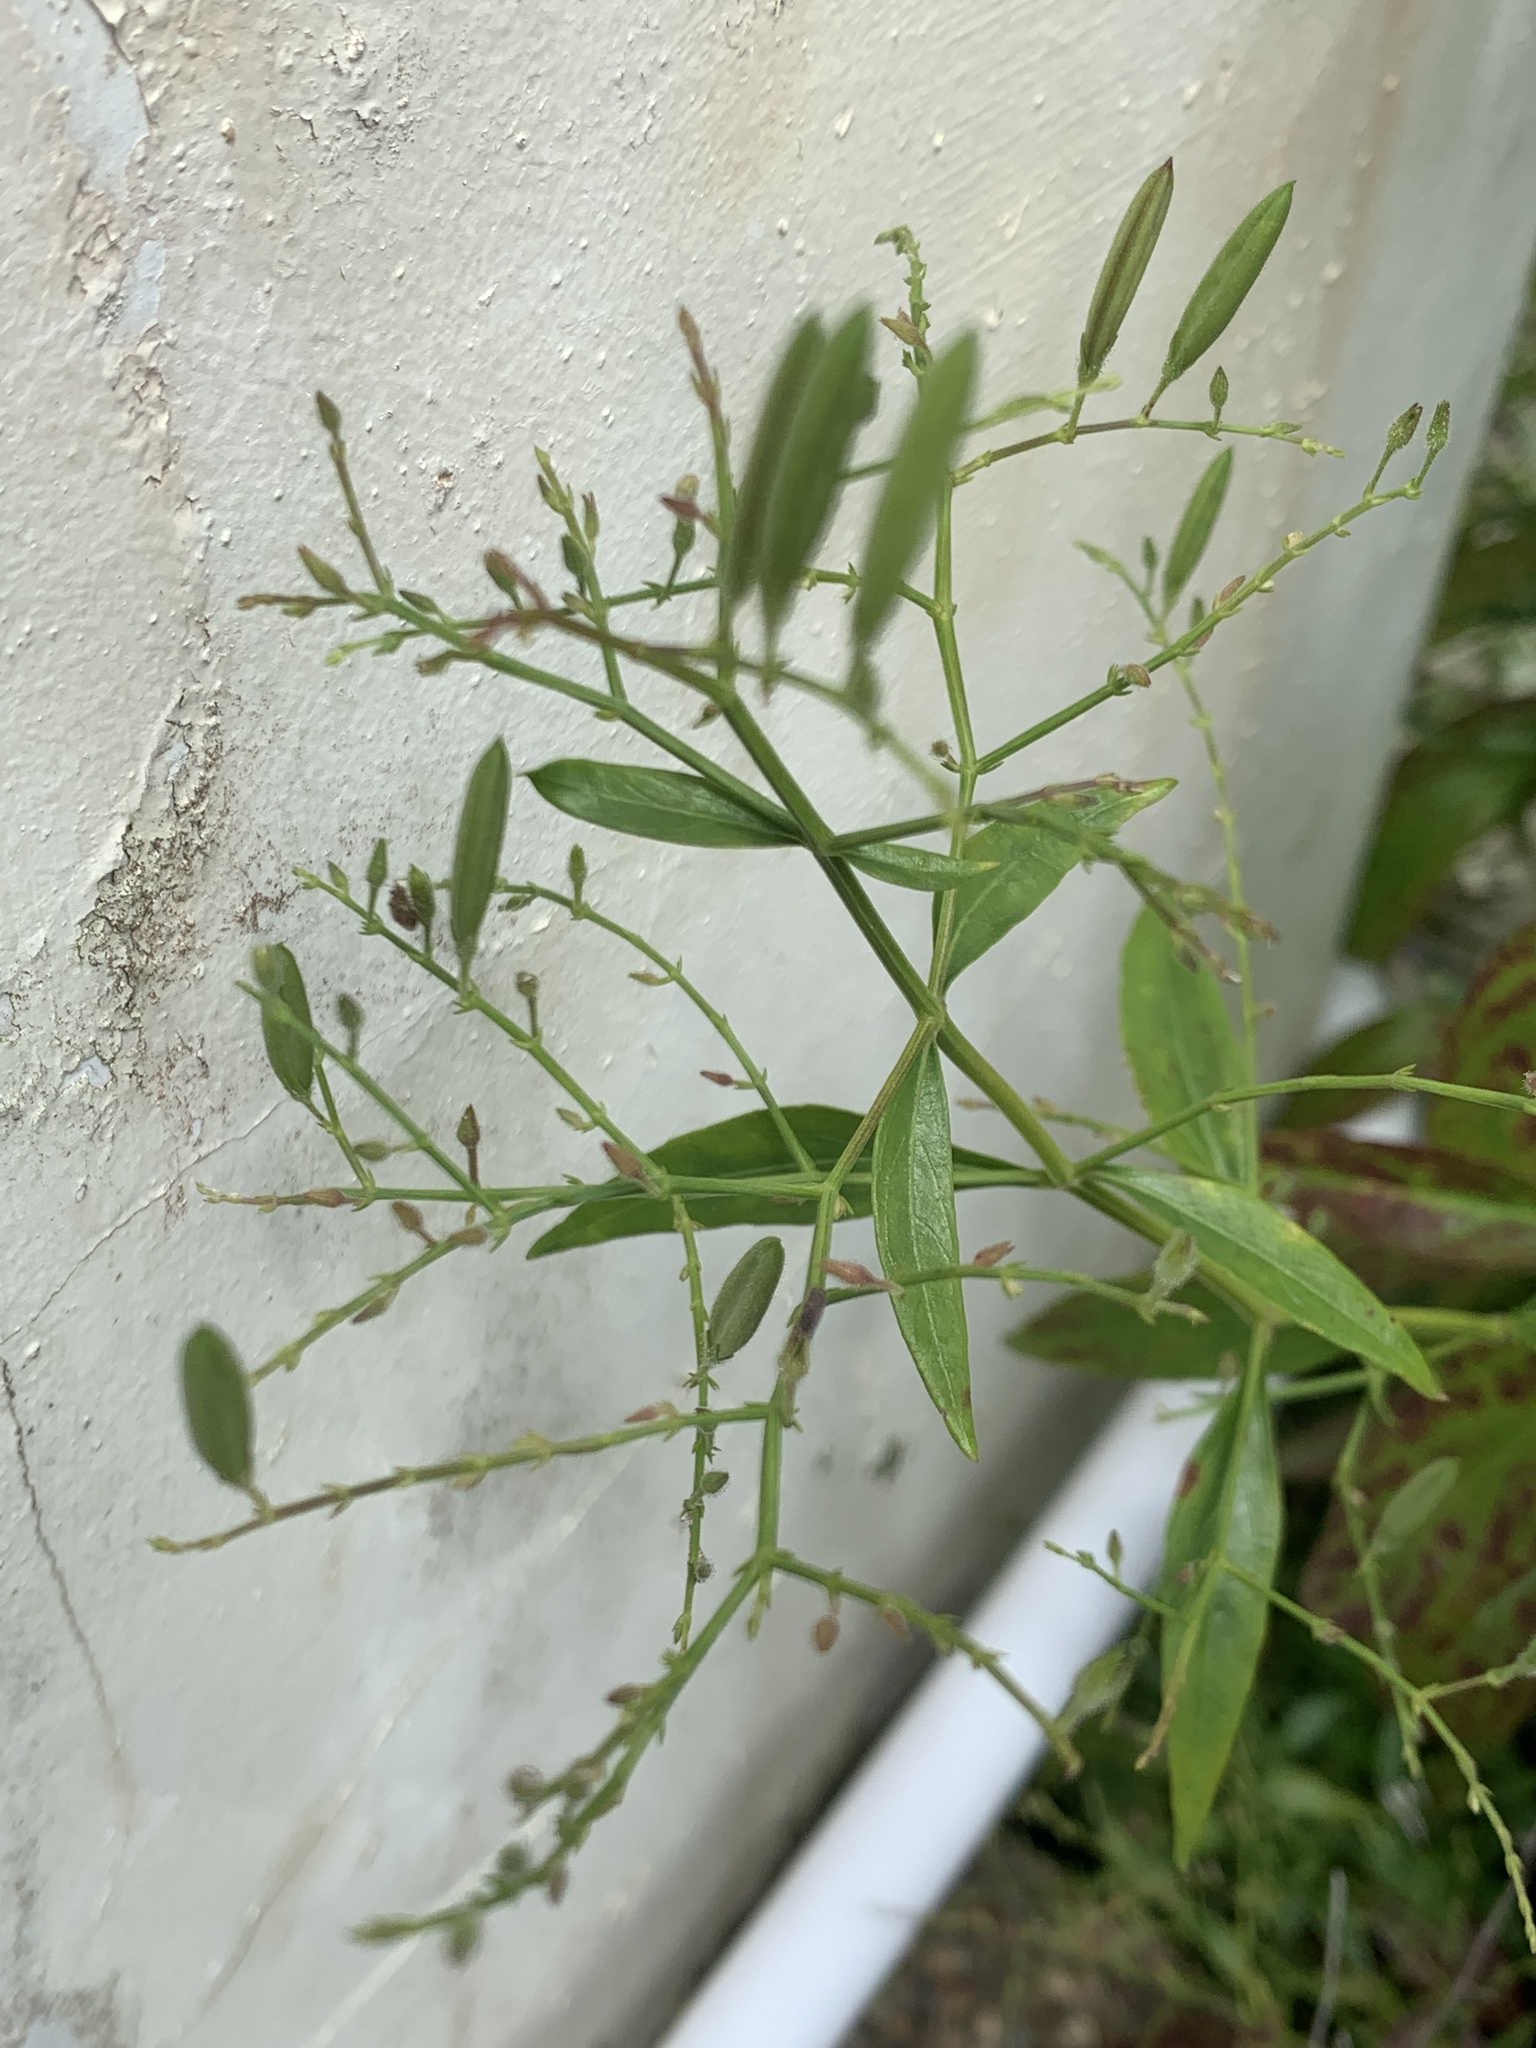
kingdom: Plantae
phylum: Tracheophyta
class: Magnoliopsida
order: Lamiales
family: Acanthaceae
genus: Andrographis
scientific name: Andrographis paniculata
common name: Green chireta
